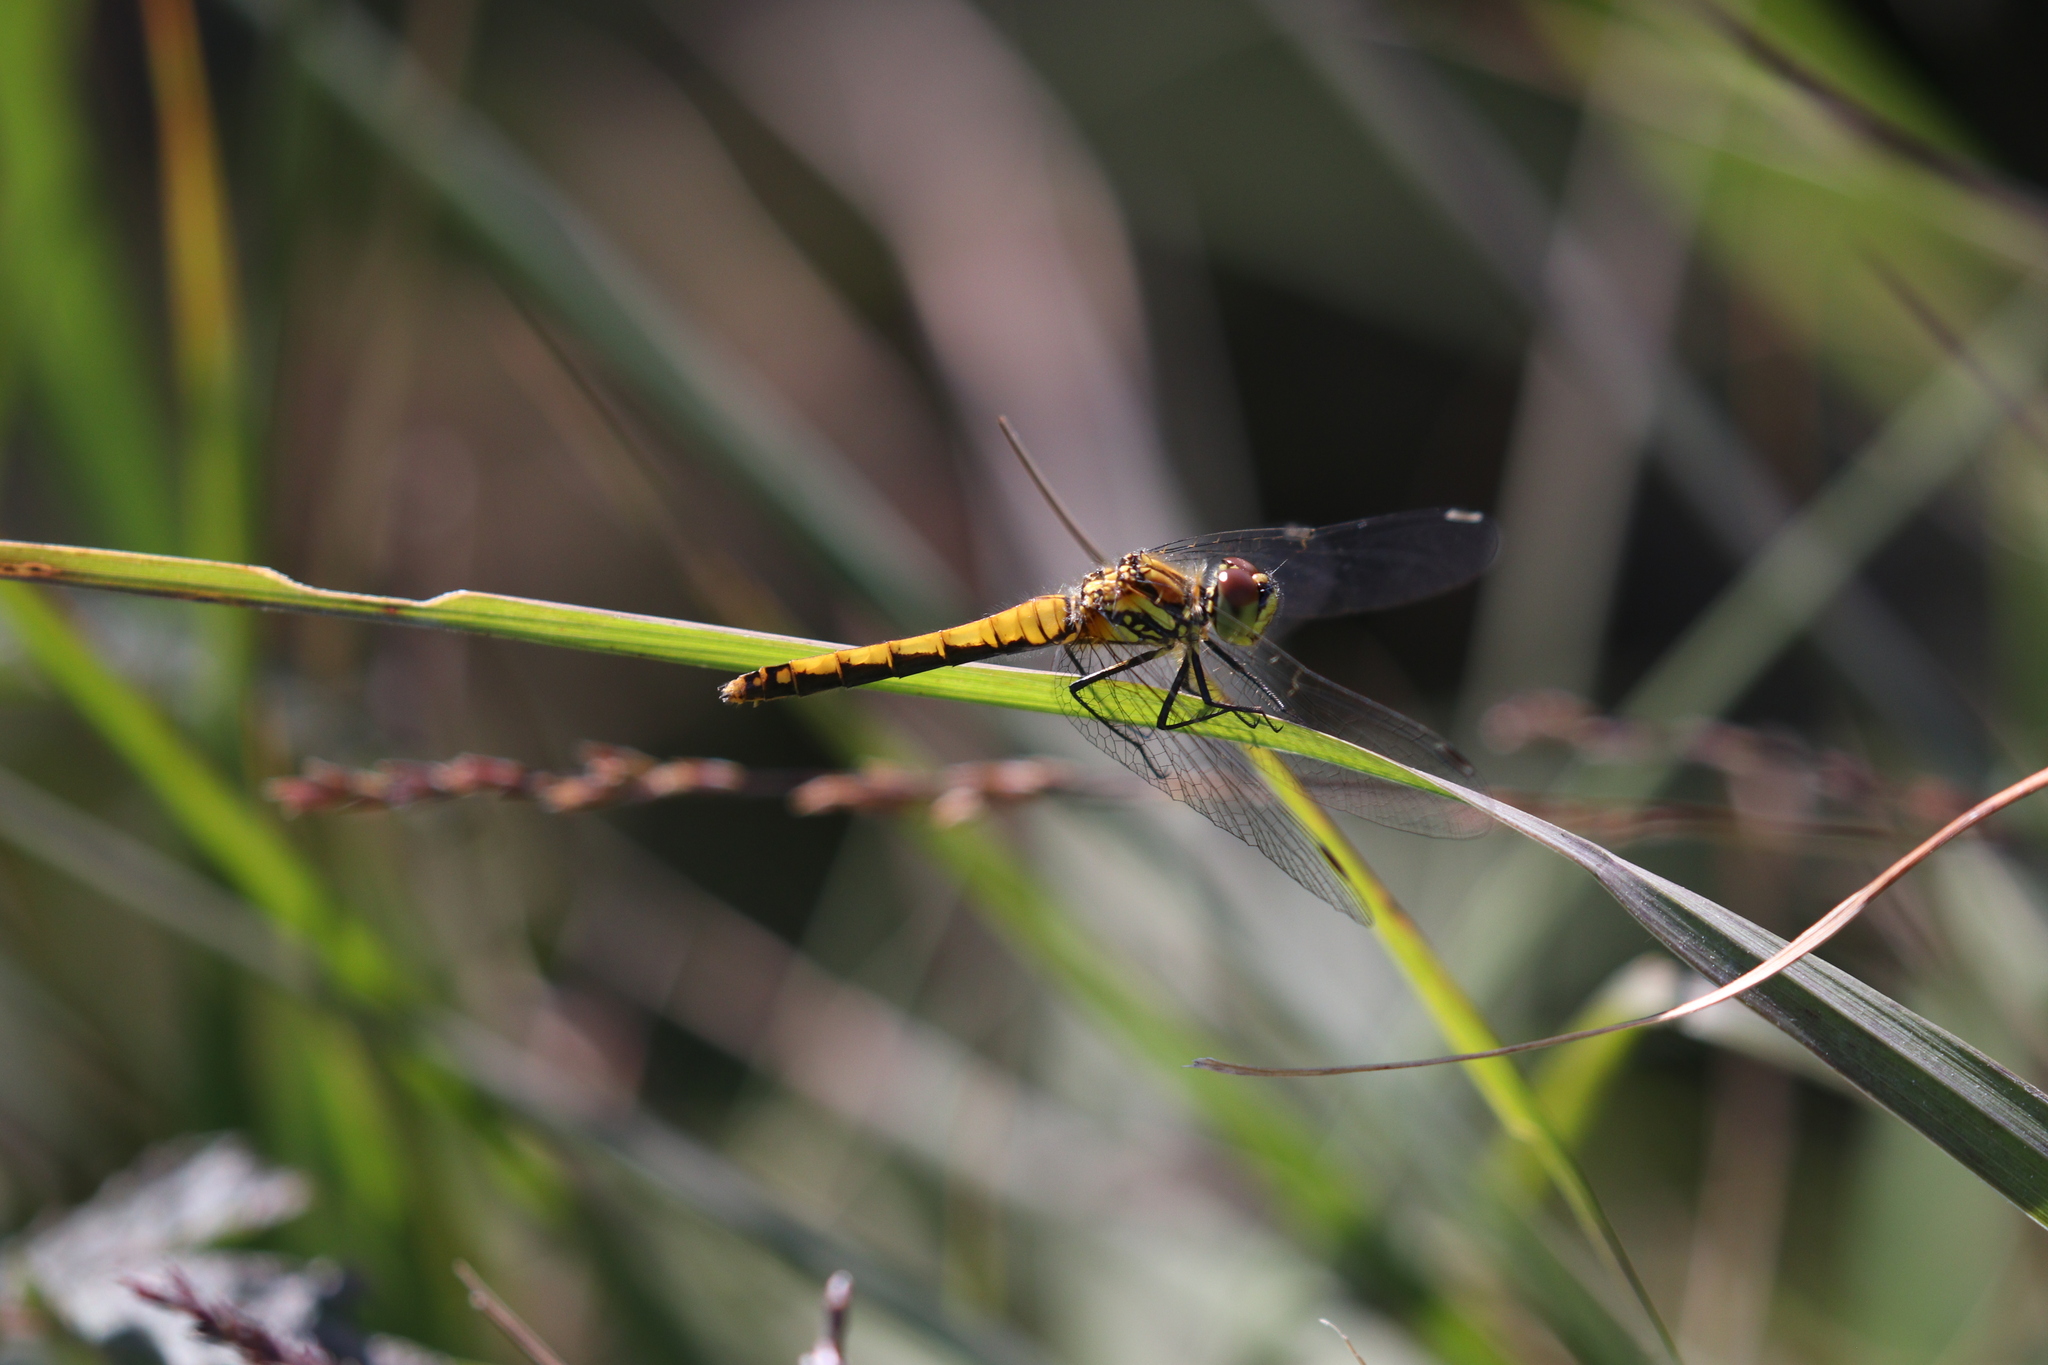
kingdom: Animalia
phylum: Arthropoda
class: Insecta
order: Odonata
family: Libellulidae
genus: Sympetrum
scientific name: Sympetrum danae
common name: Black darter
